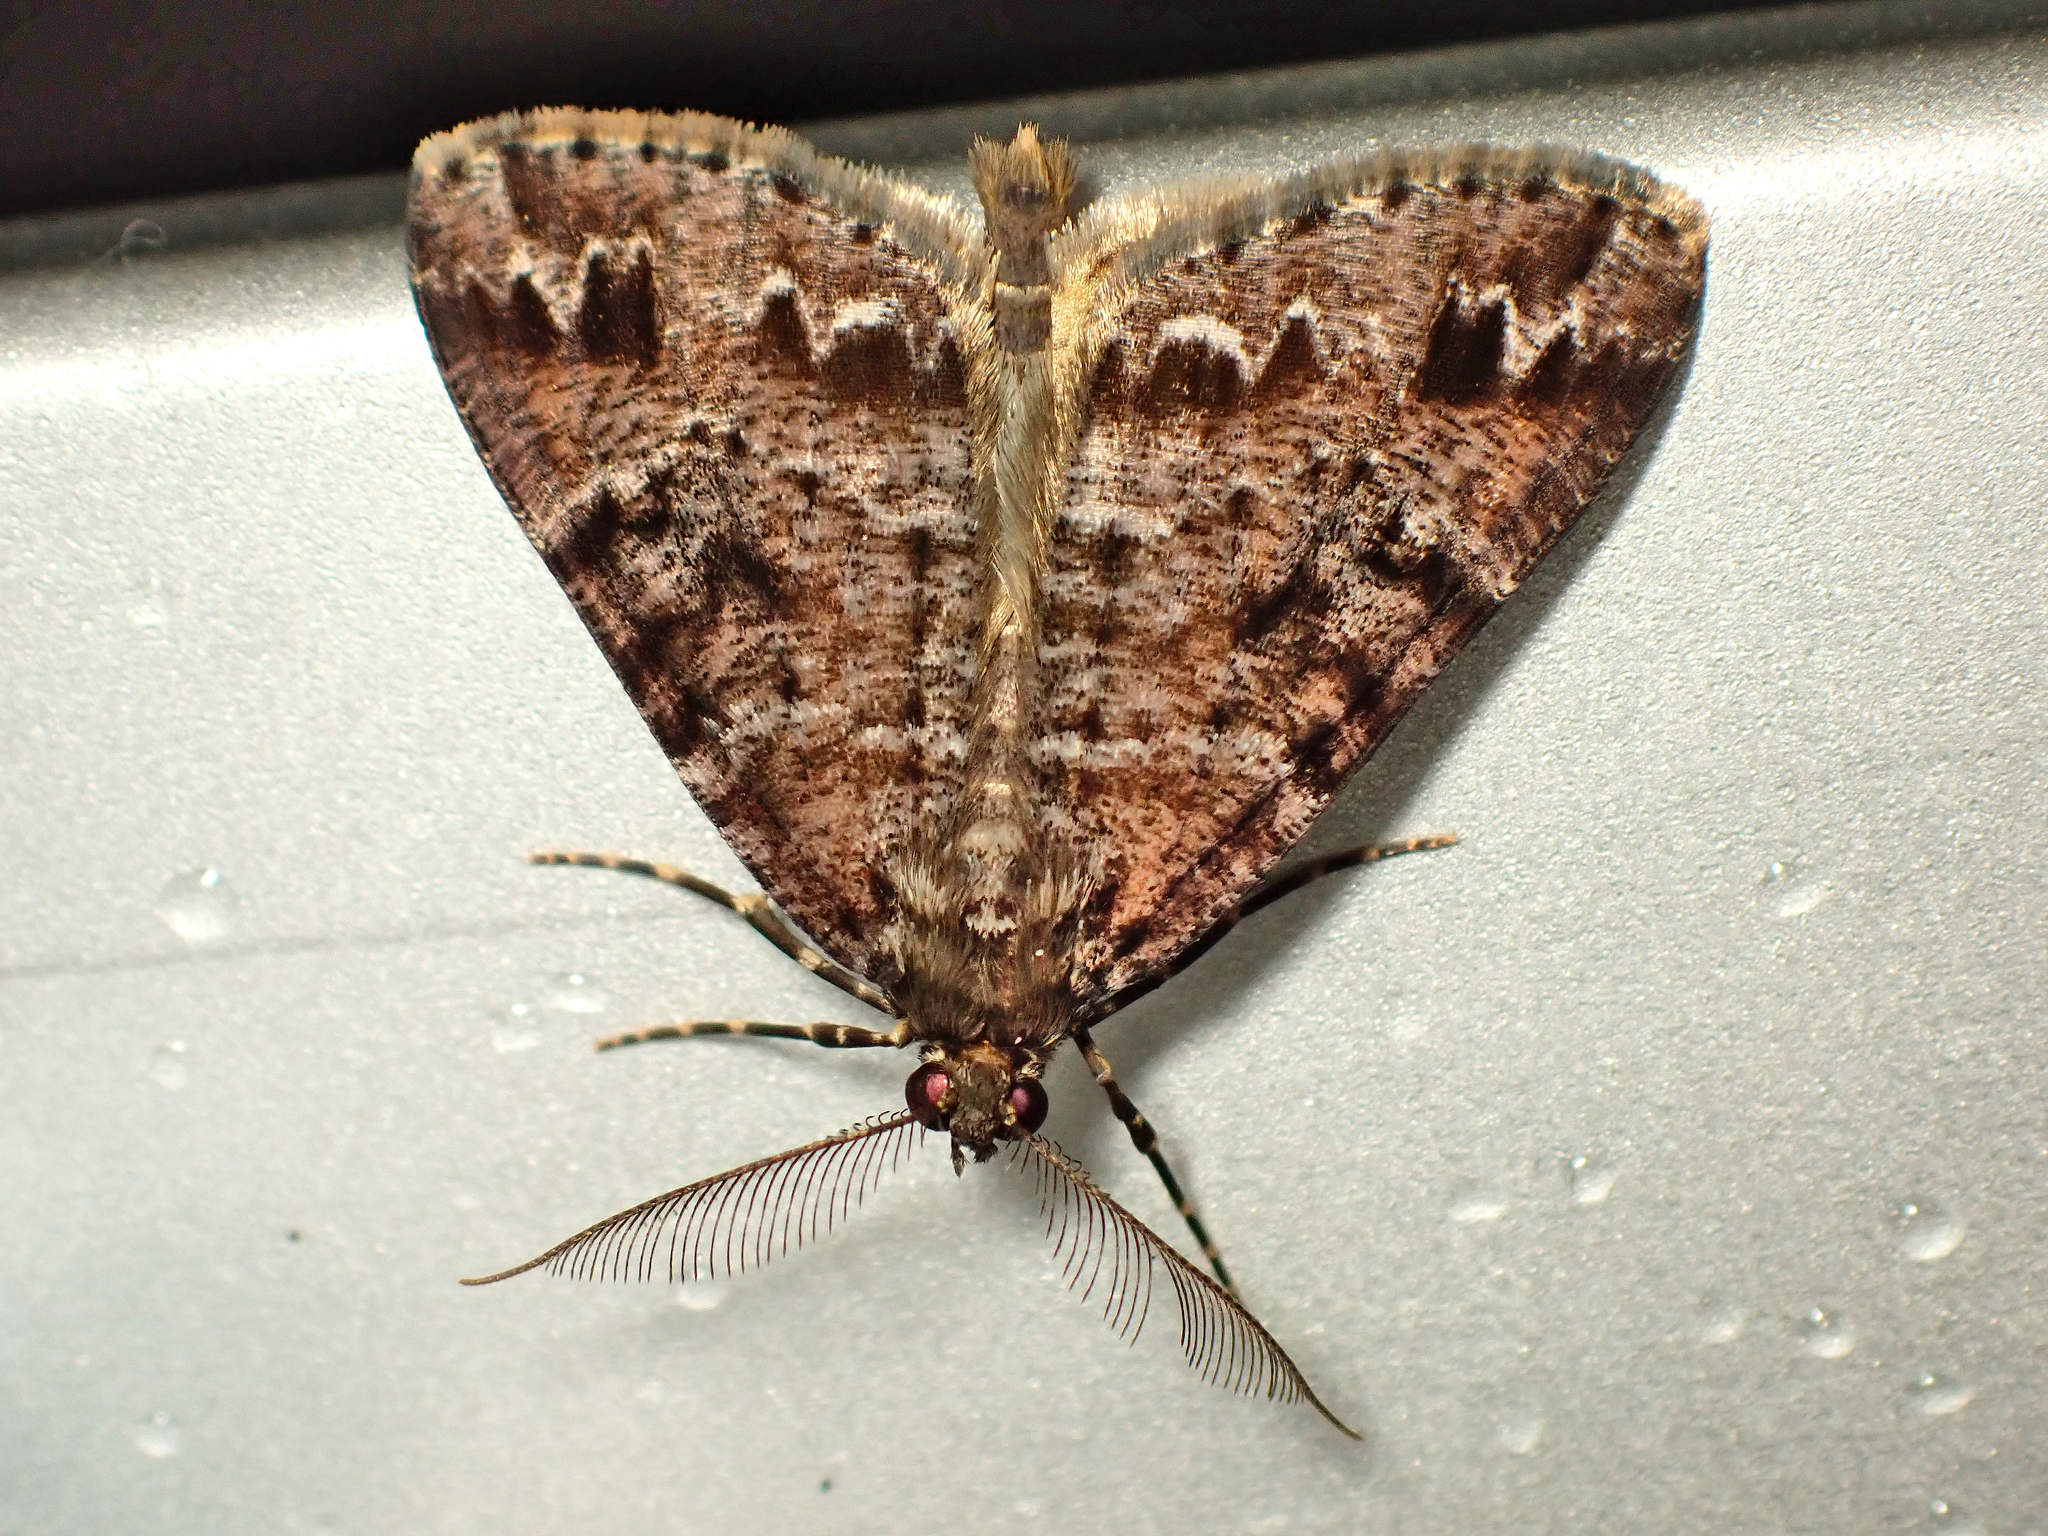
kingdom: Animalia
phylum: Arthropoda
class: Insecta
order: Lepidoptera
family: Geometridae
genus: Pseudocoremia
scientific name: Pseudocoremia productata
